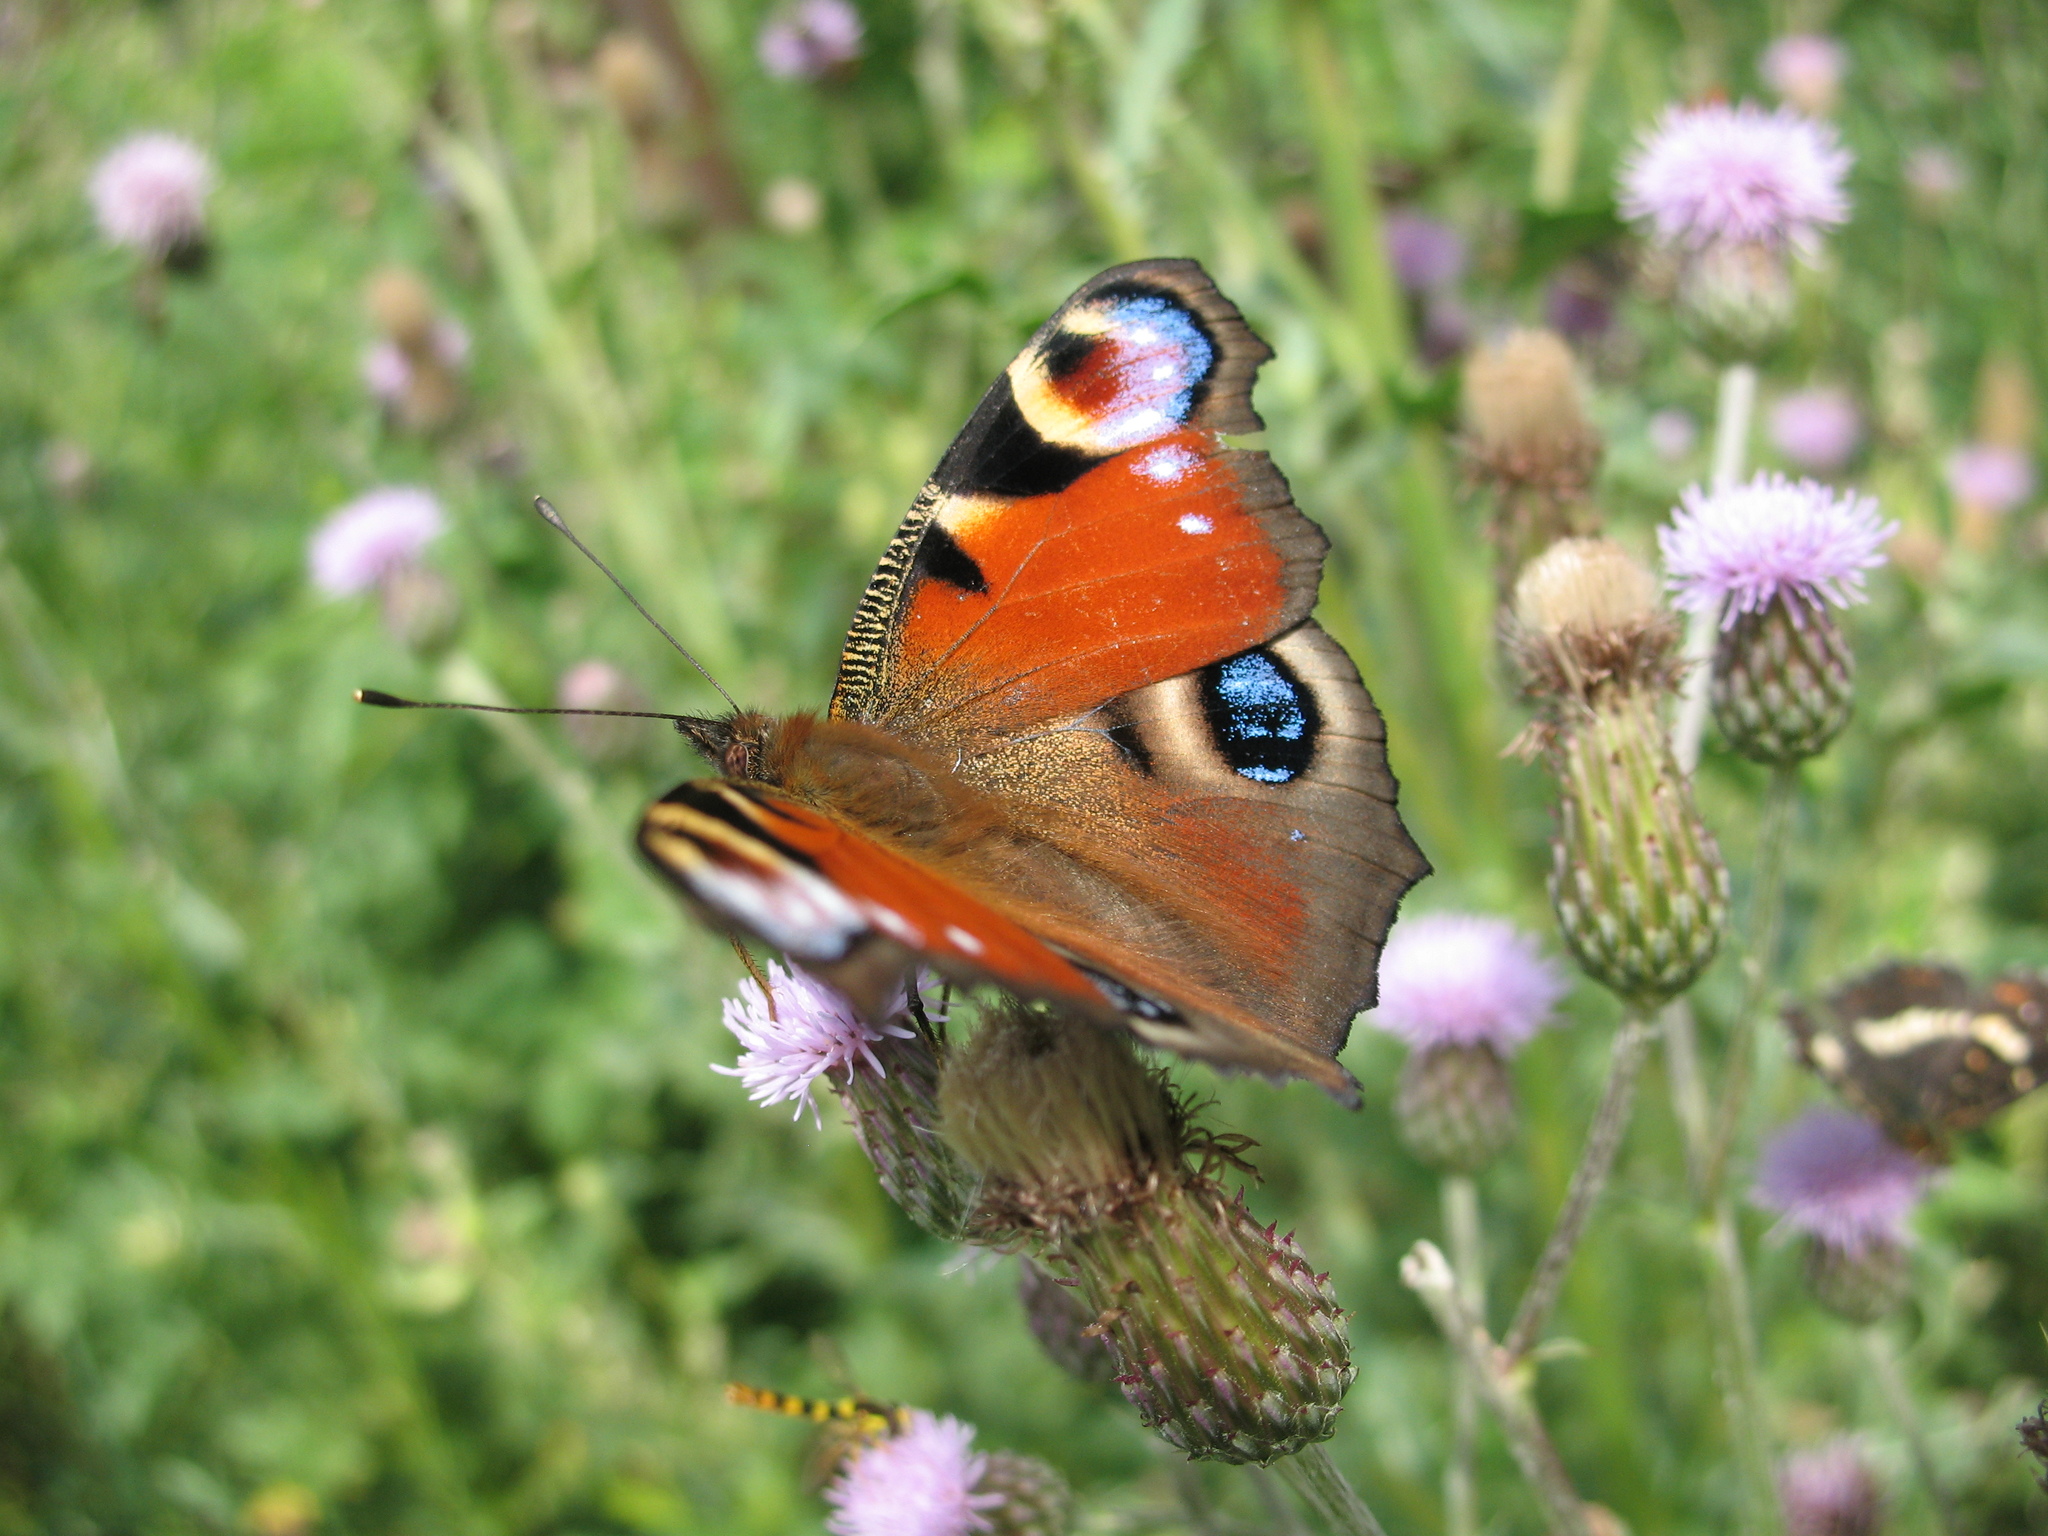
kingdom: Animalia
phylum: Arthropoda
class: Insecta
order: Lepidoptera
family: Nymphalidae
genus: Aglais
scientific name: Aglais io
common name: Peacock
